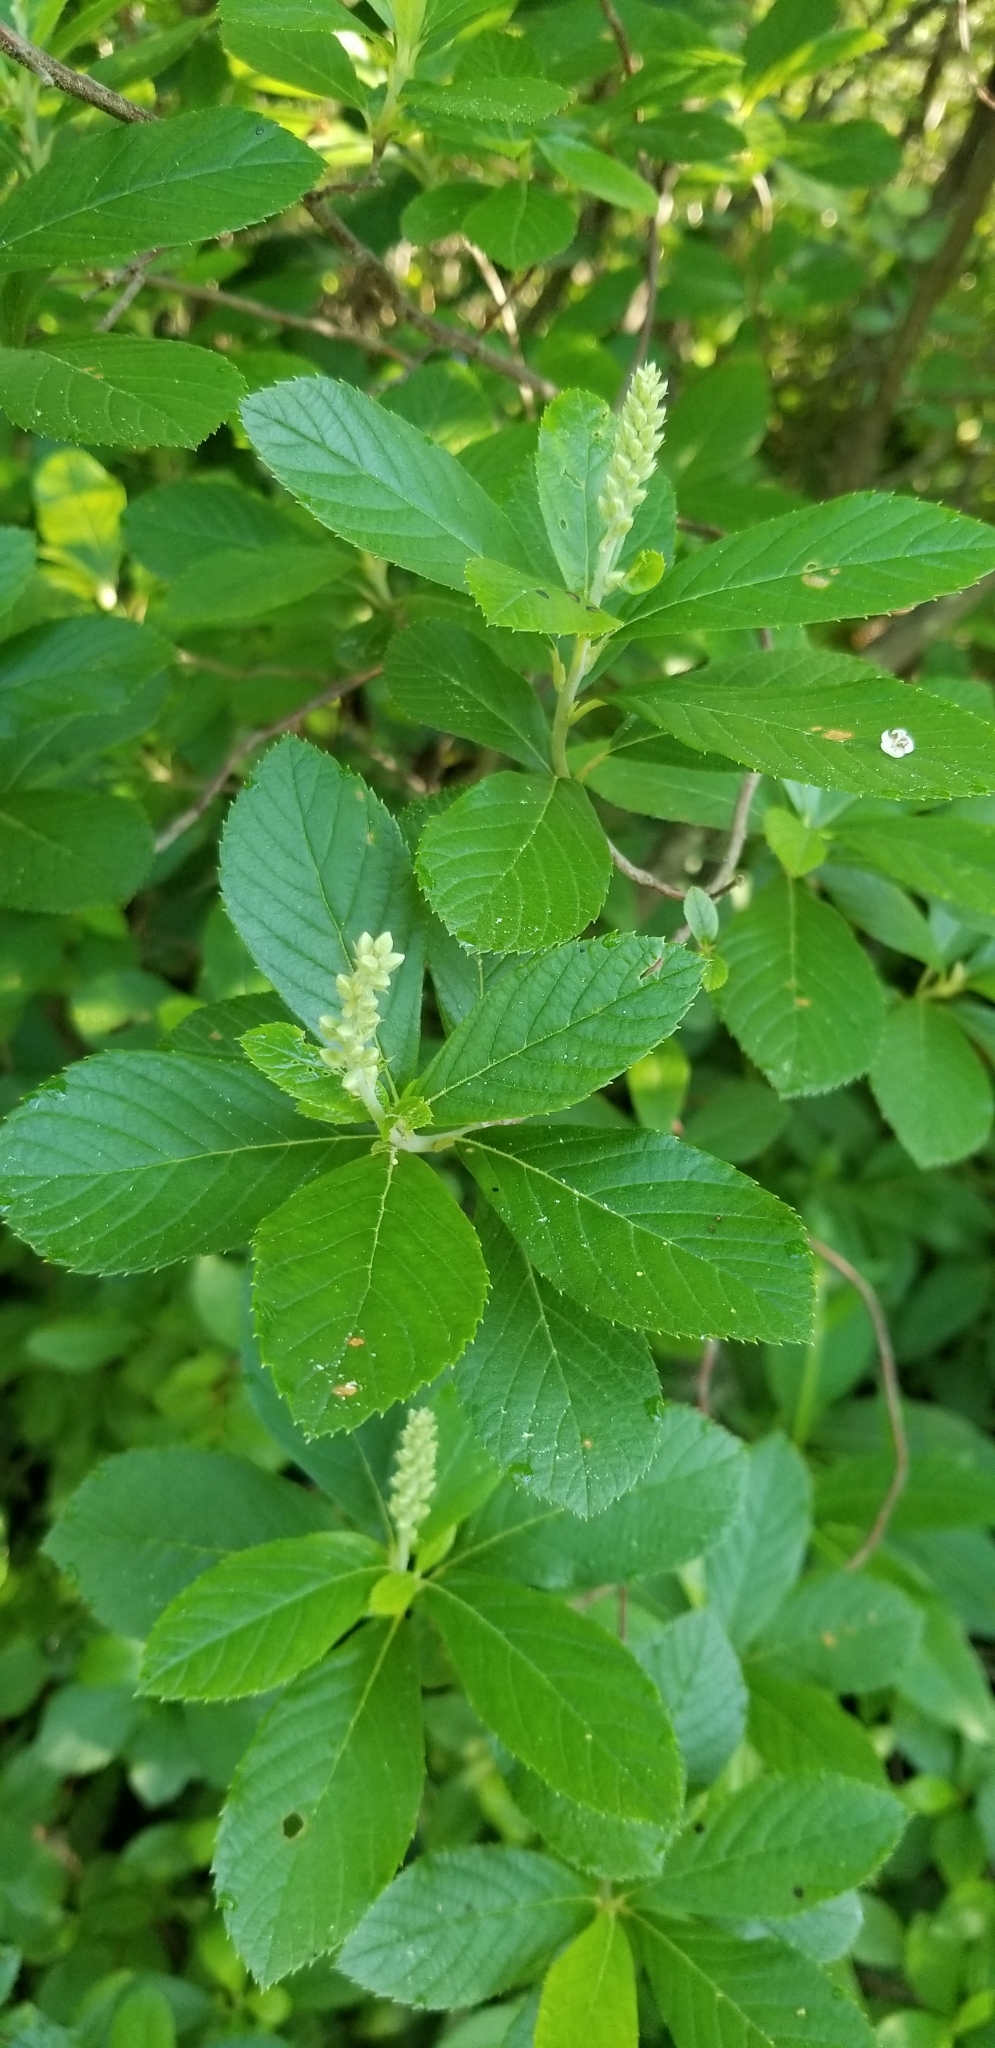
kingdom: Plantae
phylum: Tracheophyta
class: Magnoliopsida
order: Ericales
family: Clethraceae
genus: Clethra
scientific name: Clethra alnifolia
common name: Sweet pepperbush
